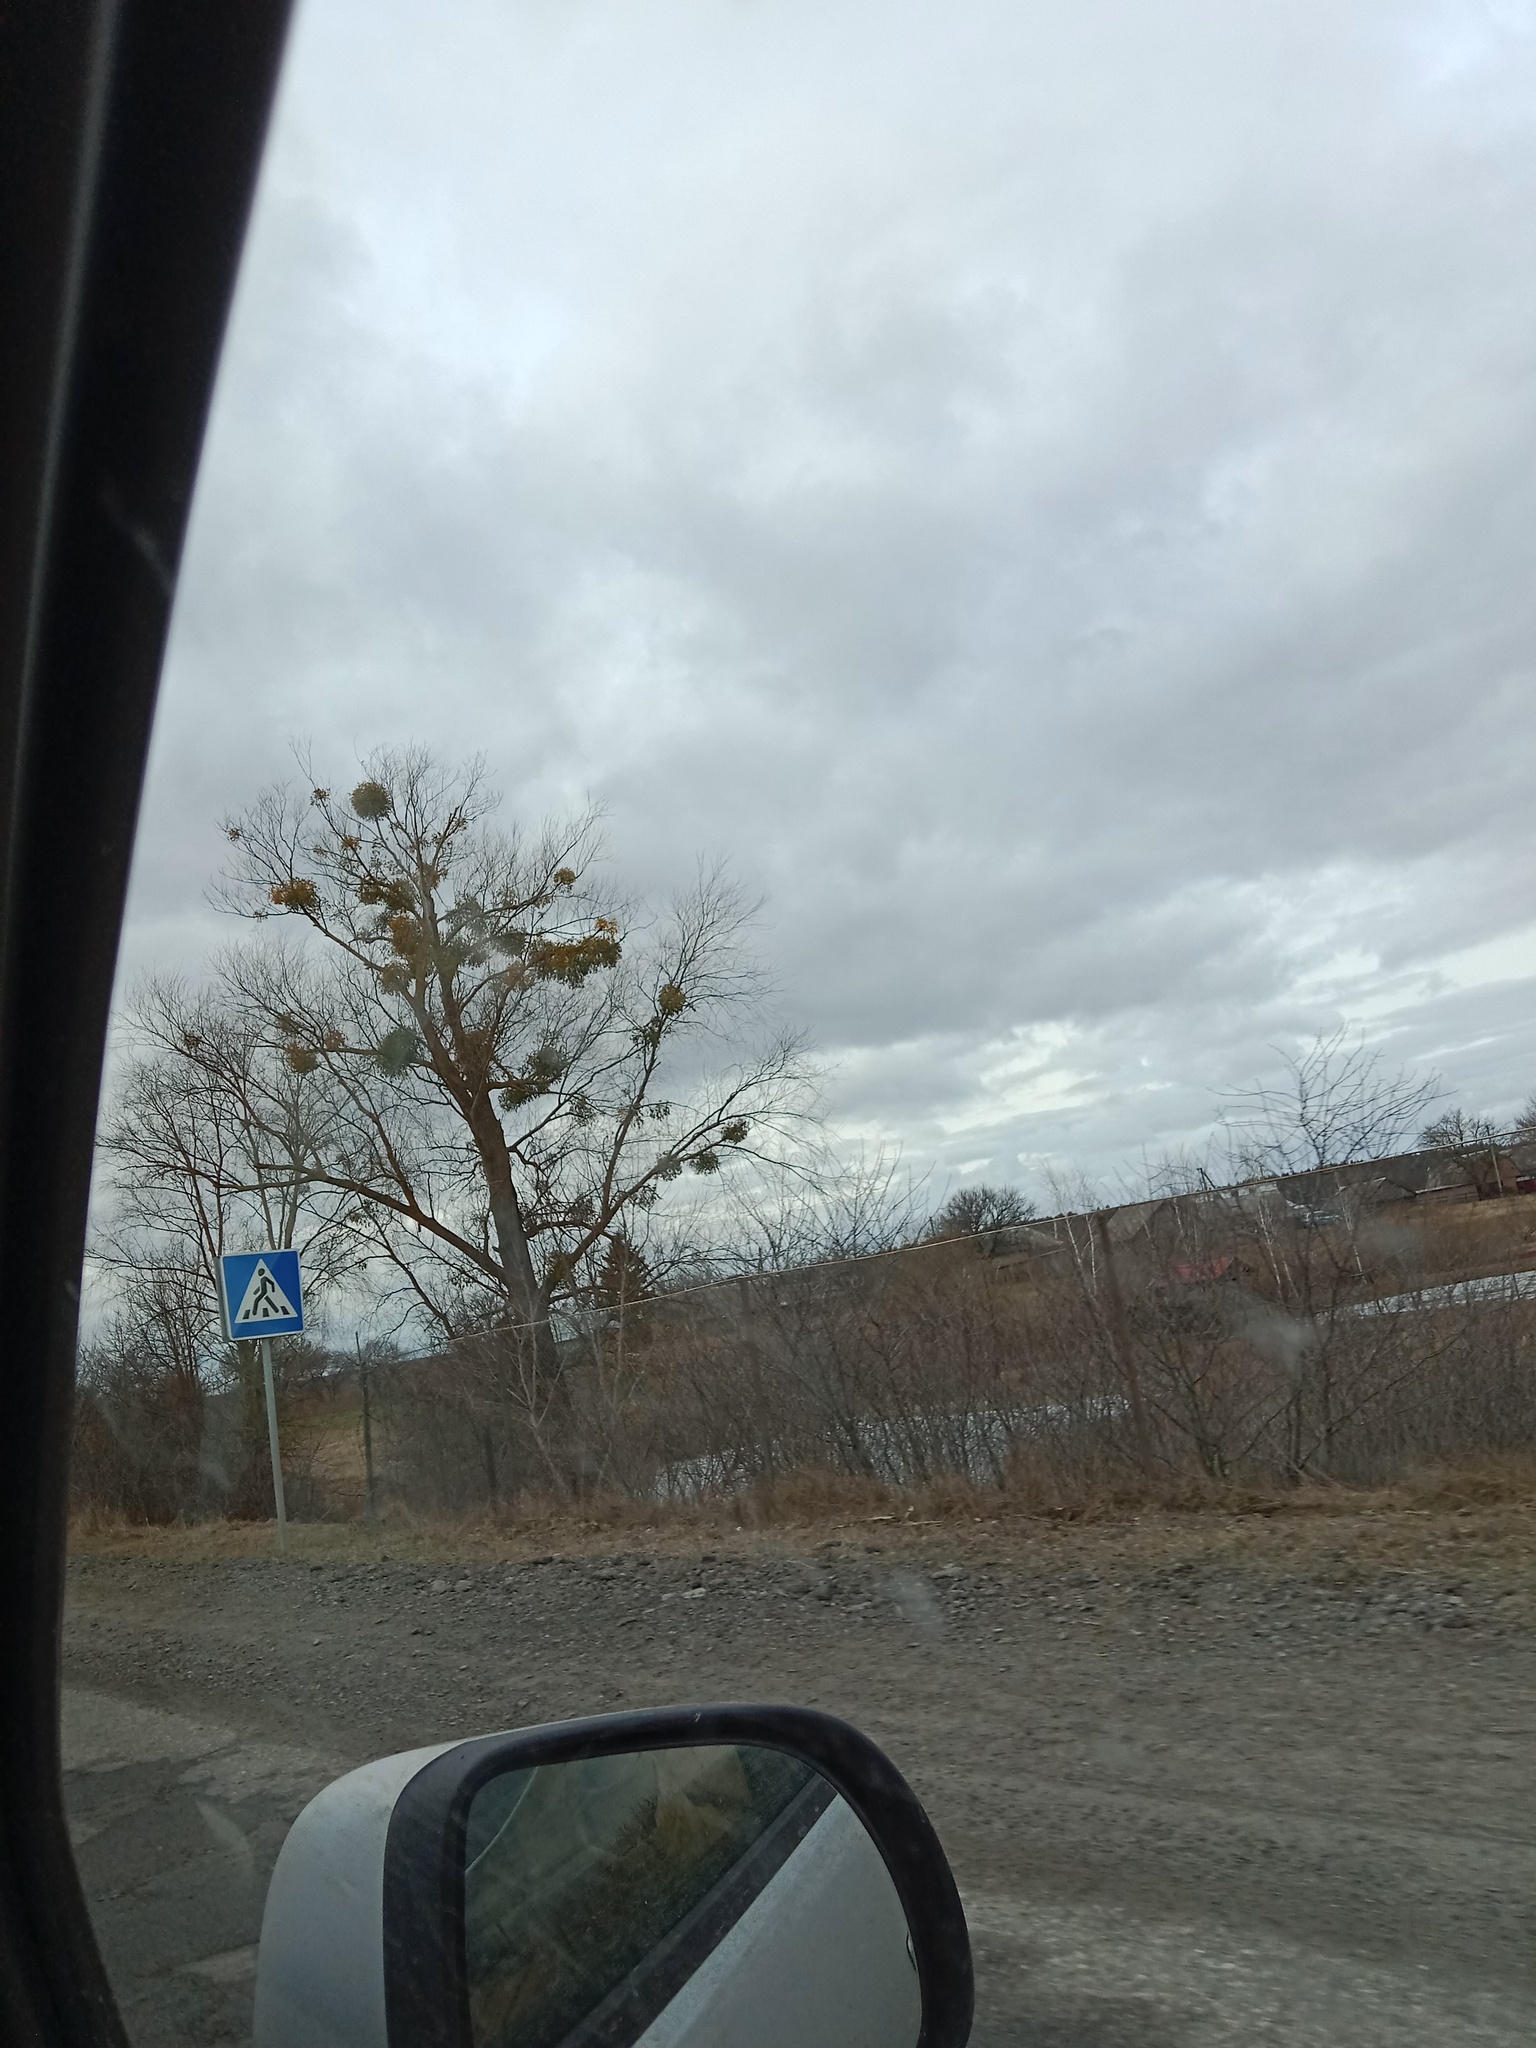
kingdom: Plantae
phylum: Tracheophyta
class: Magnoliopsida
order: Santalales
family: Viscaceae
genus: Viscum
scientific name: Viscum album
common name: Mistletoe
